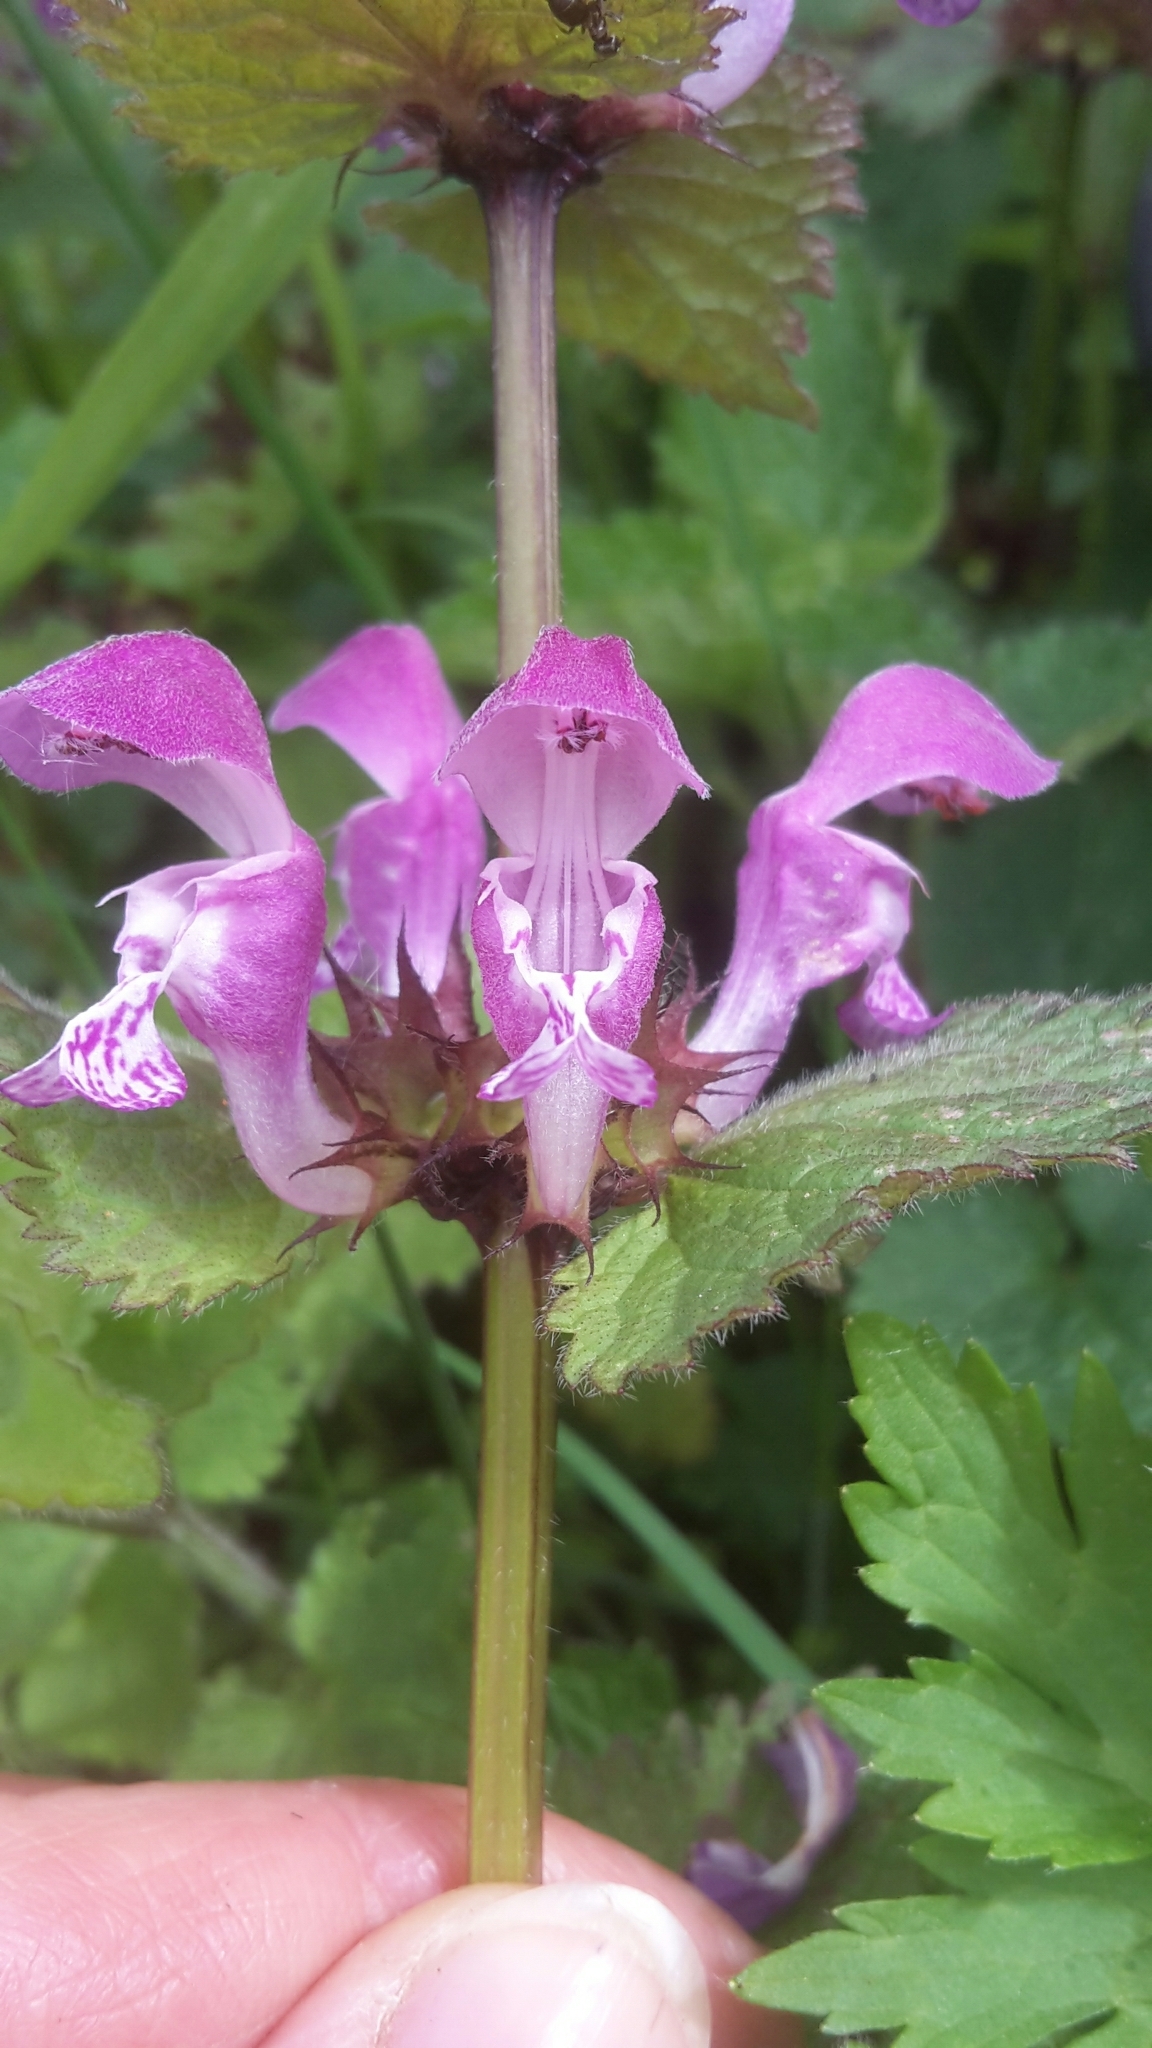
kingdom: Plantae
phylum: Tracheophyta
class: Magnoliopsida
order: Lamiales
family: Lamiaceae
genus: Lamium
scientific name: Lamium maculatum
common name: Spotted dead-nettle
